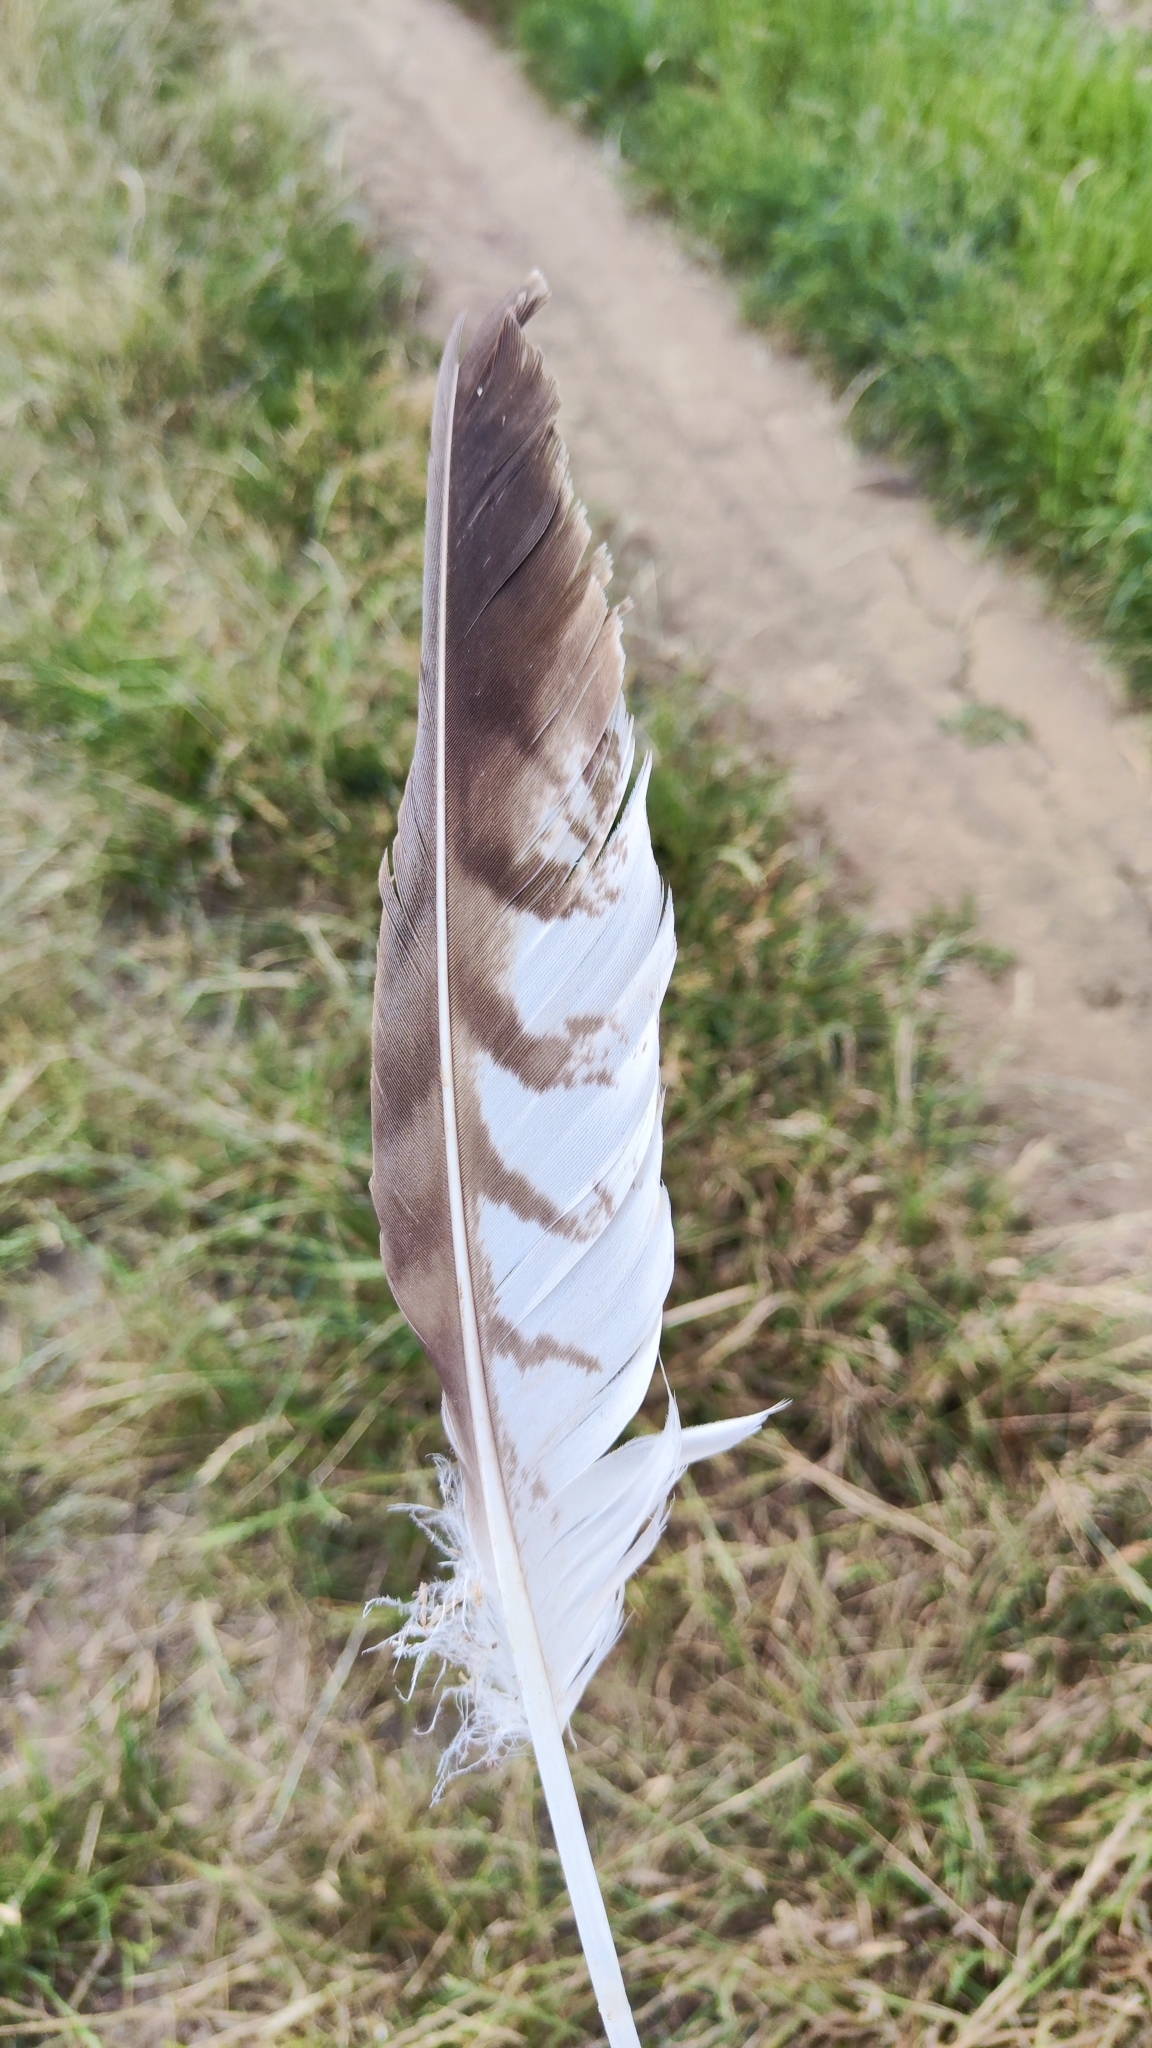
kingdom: Animalia
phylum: Chordata
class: Aves
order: Accipitriformes
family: Accipitridae
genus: Buteo
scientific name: Buteo buteo
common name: Common buzzard
